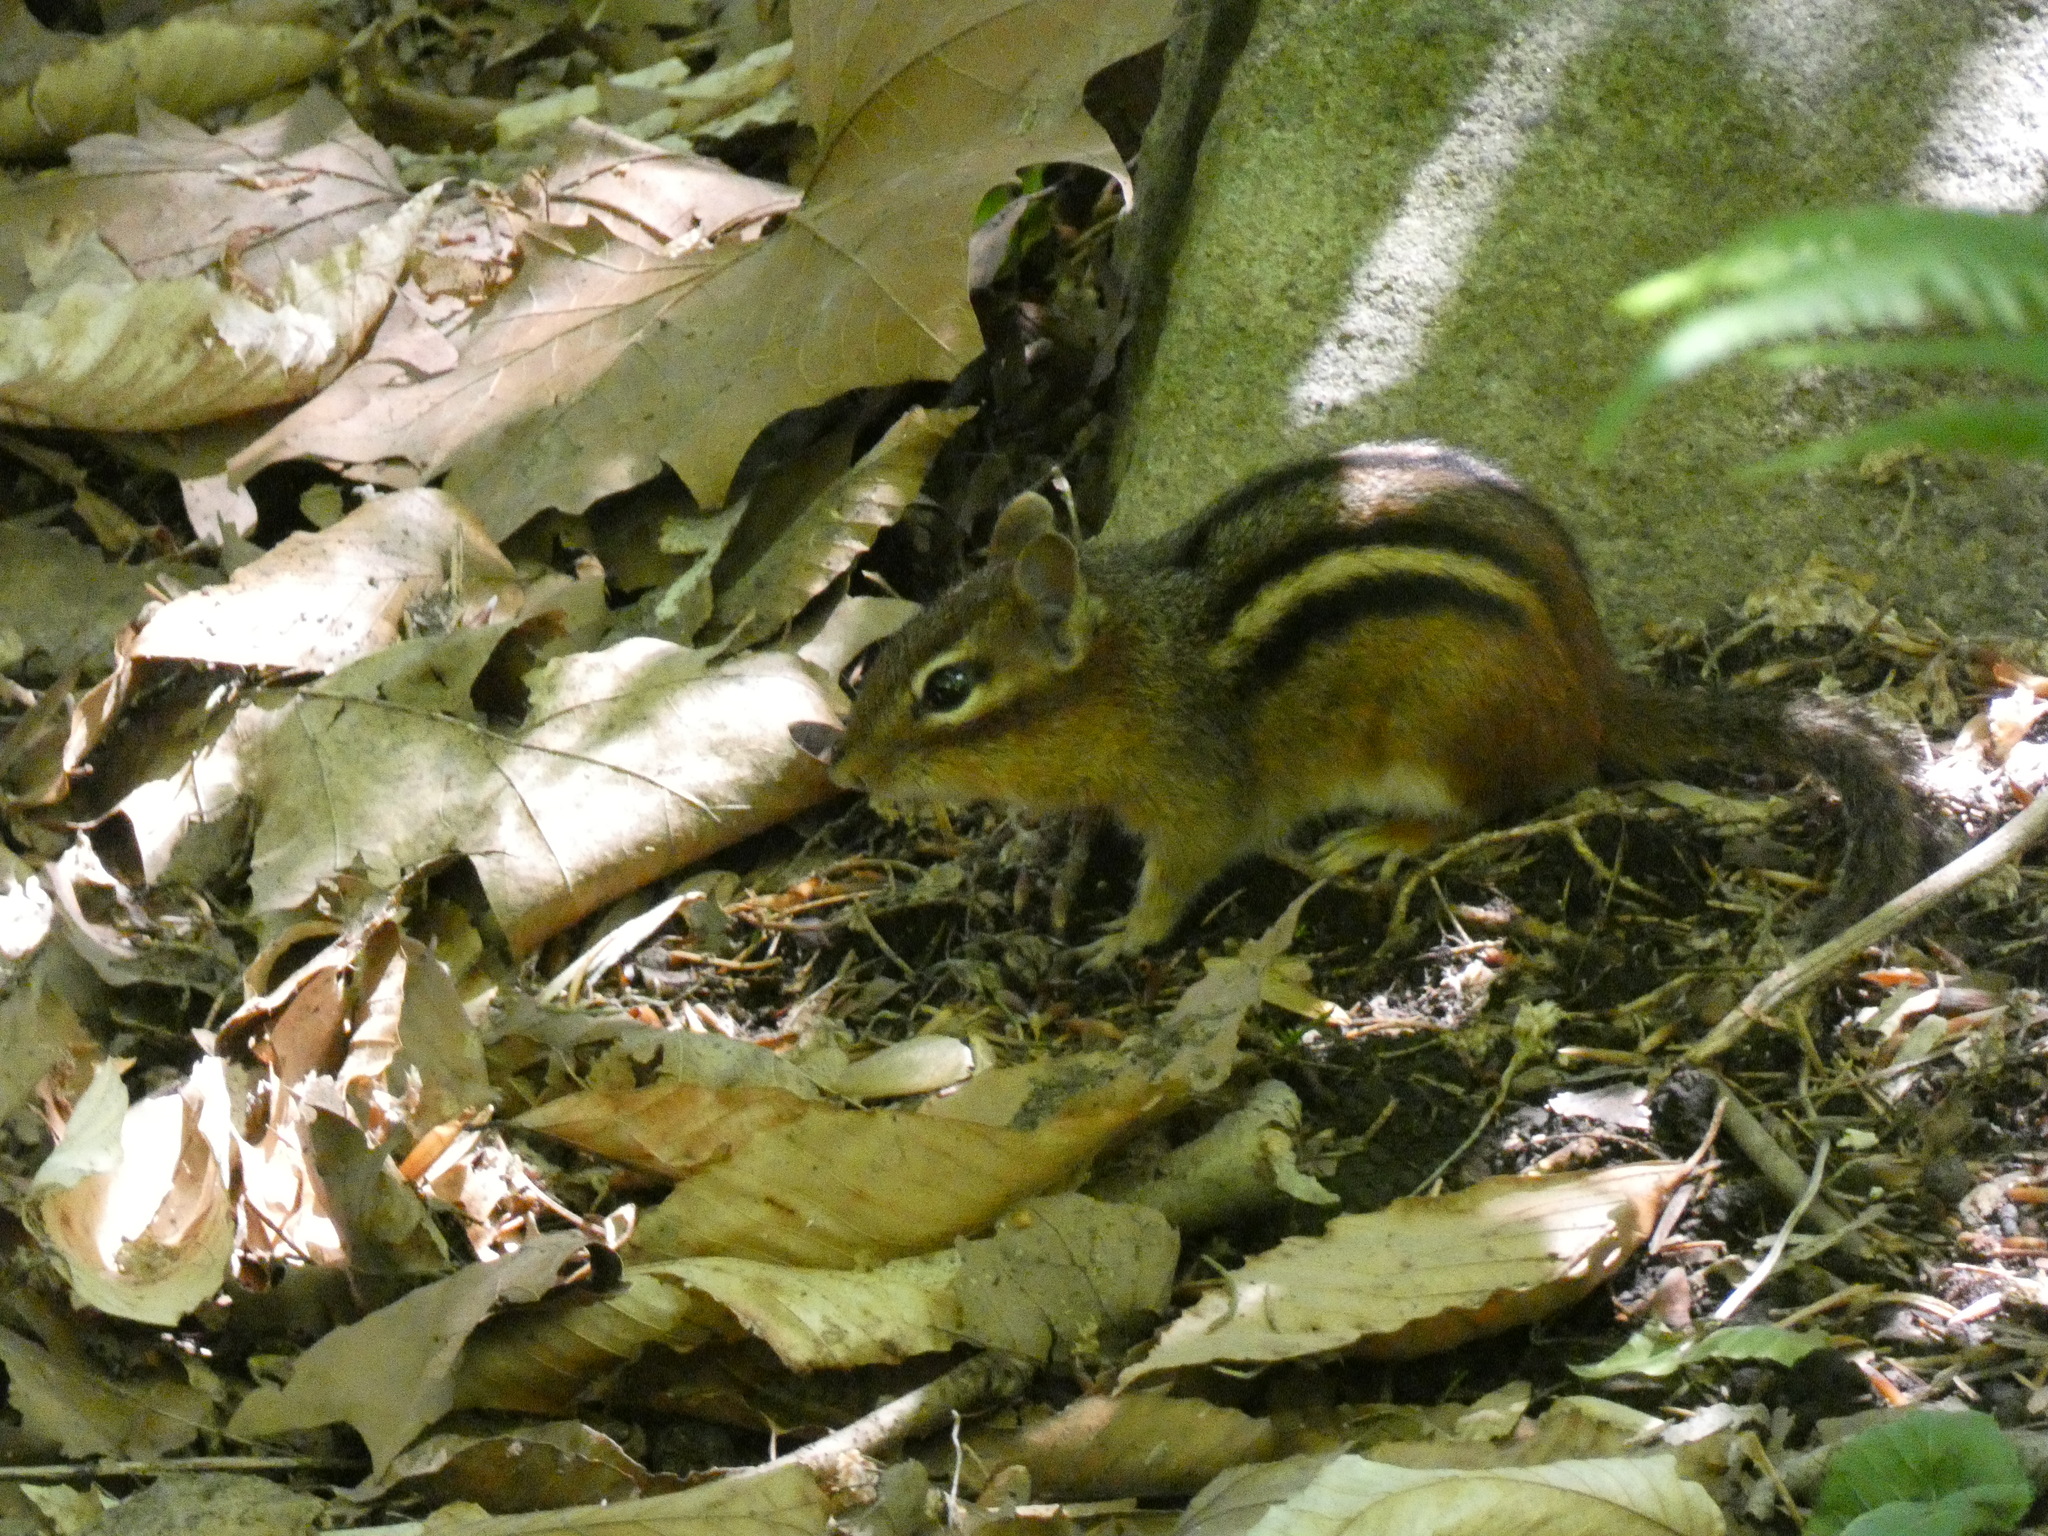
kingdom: Animalia
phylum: Chordata
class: Mammalia
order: Rodentia
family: Sciuridae
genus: Tamias
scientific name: Tamias striatus
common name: Eastern chipmunk
